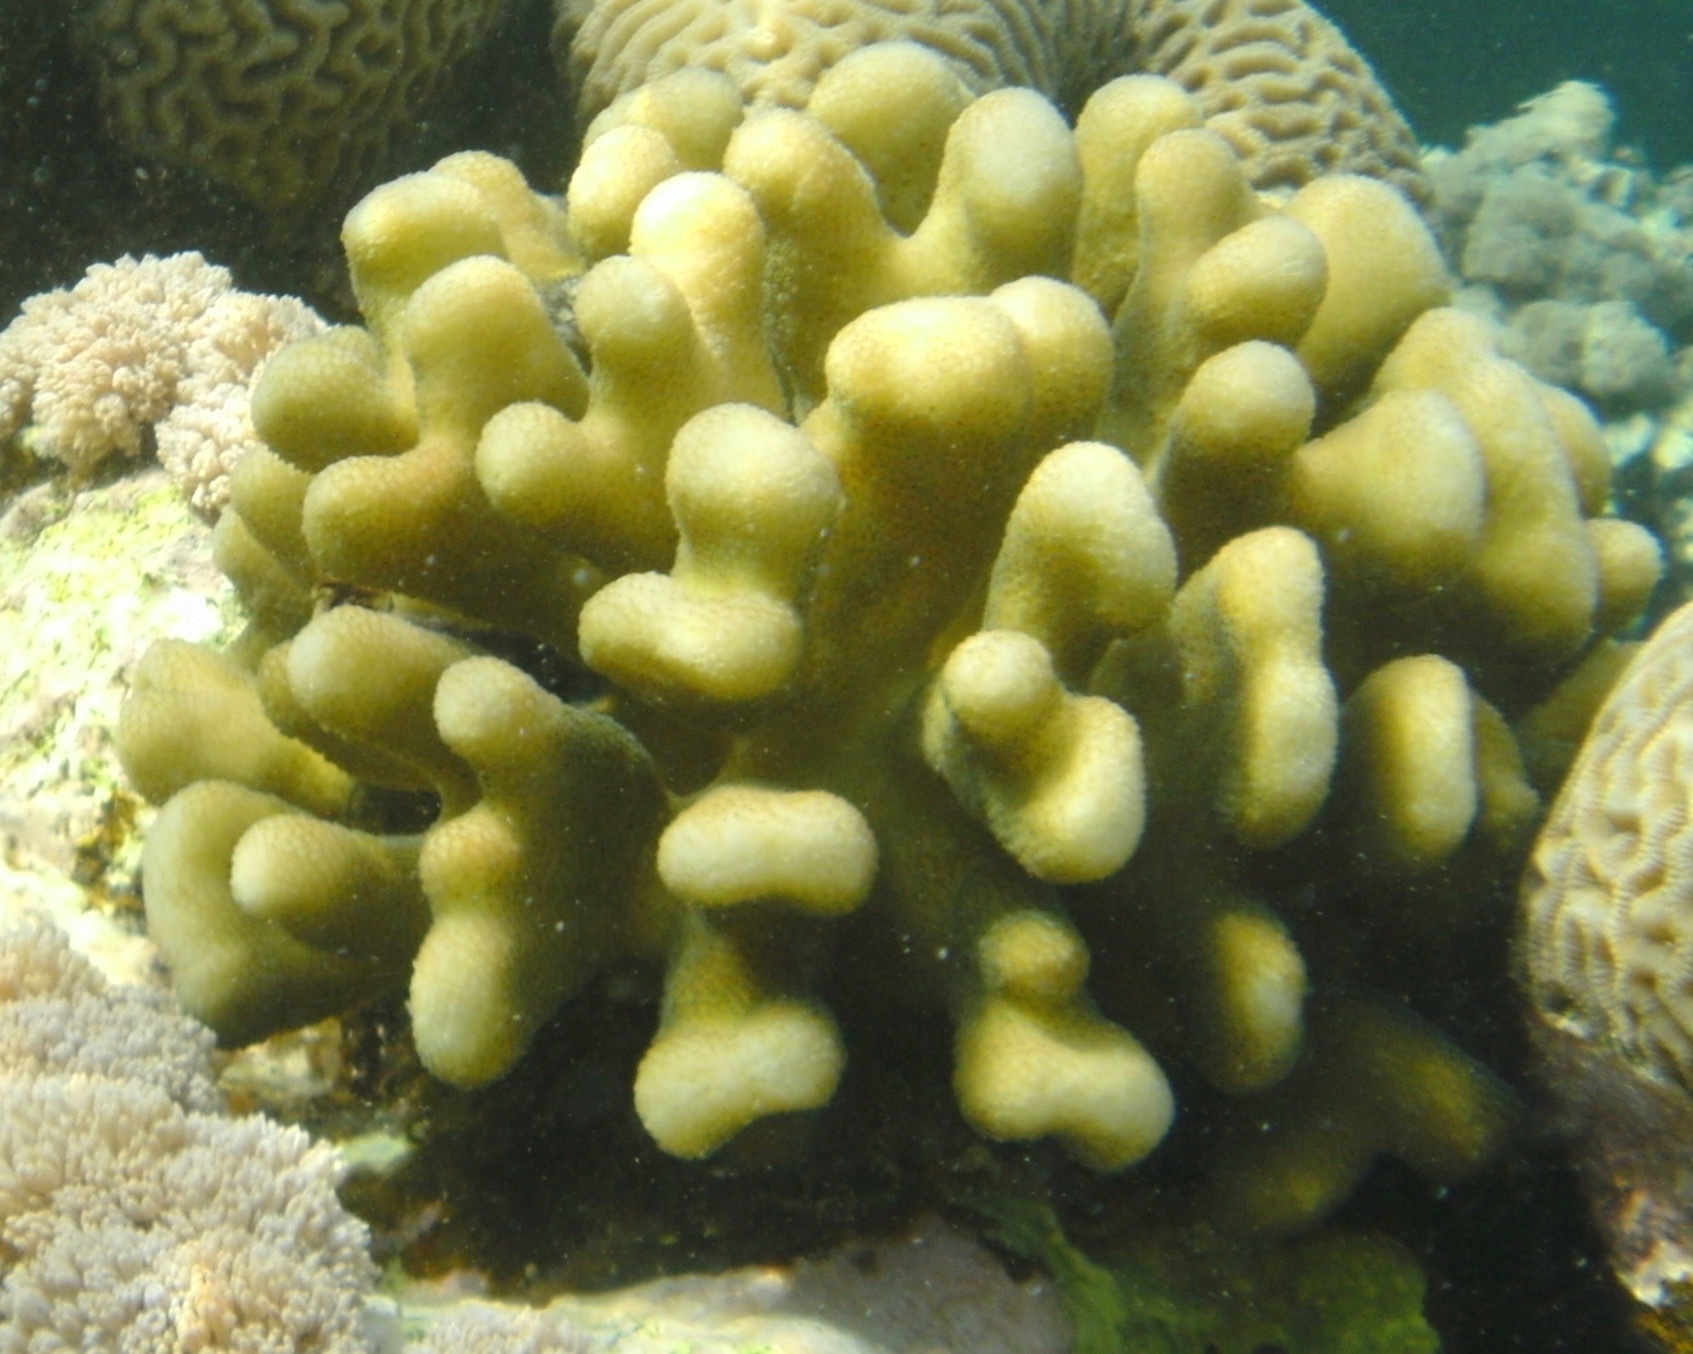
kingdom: Animalia
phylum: Cnidaria
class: Anthozoa
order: Scleractinia
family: Pocilloporidae
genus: Stylophora
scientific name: Stylophora pistillata
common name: Hood coral
